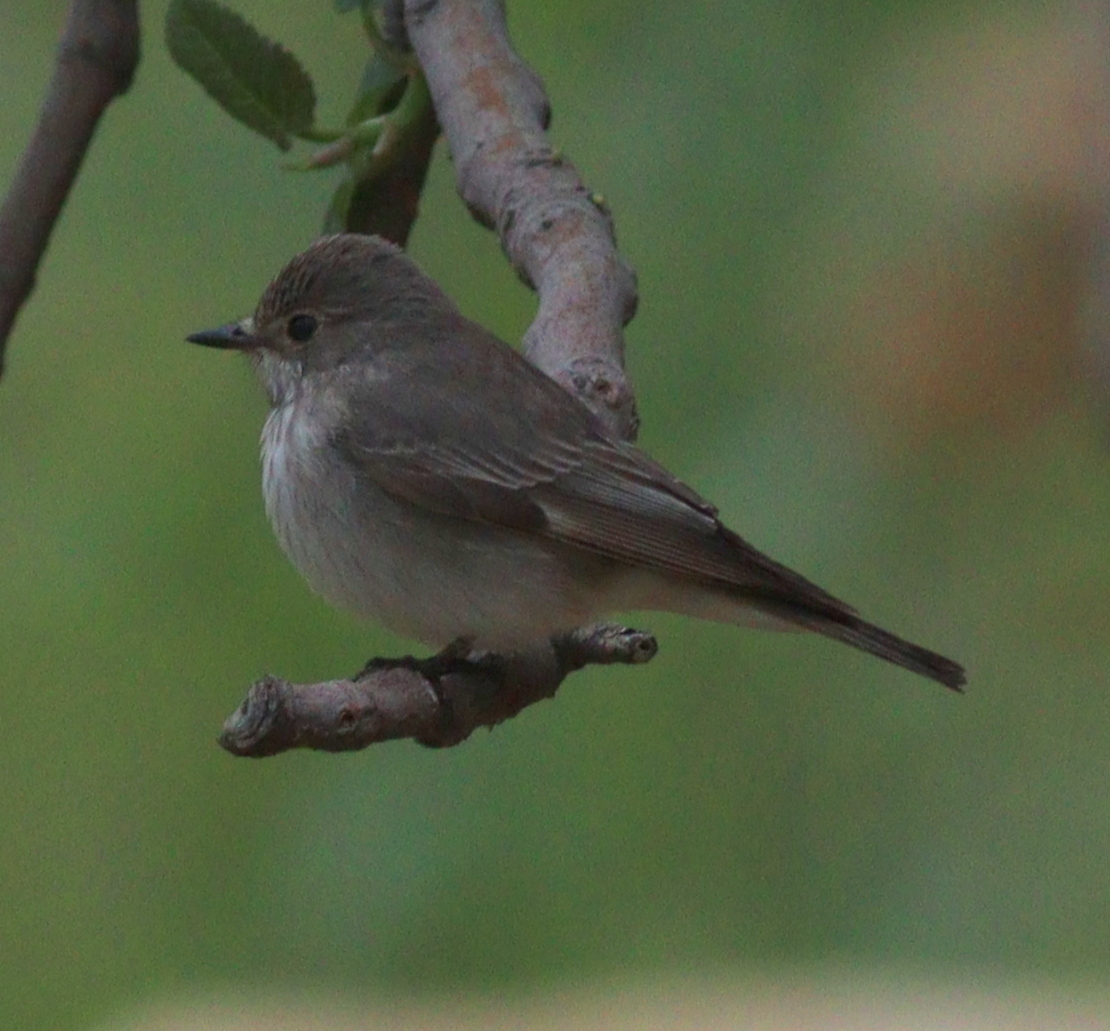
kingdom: Animalia
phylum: Chordata
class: Aves
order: Passeriformes
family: Muscicapidae
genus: Muscicapa
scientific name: Muscicapa striata
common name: Spotted flycatcher
